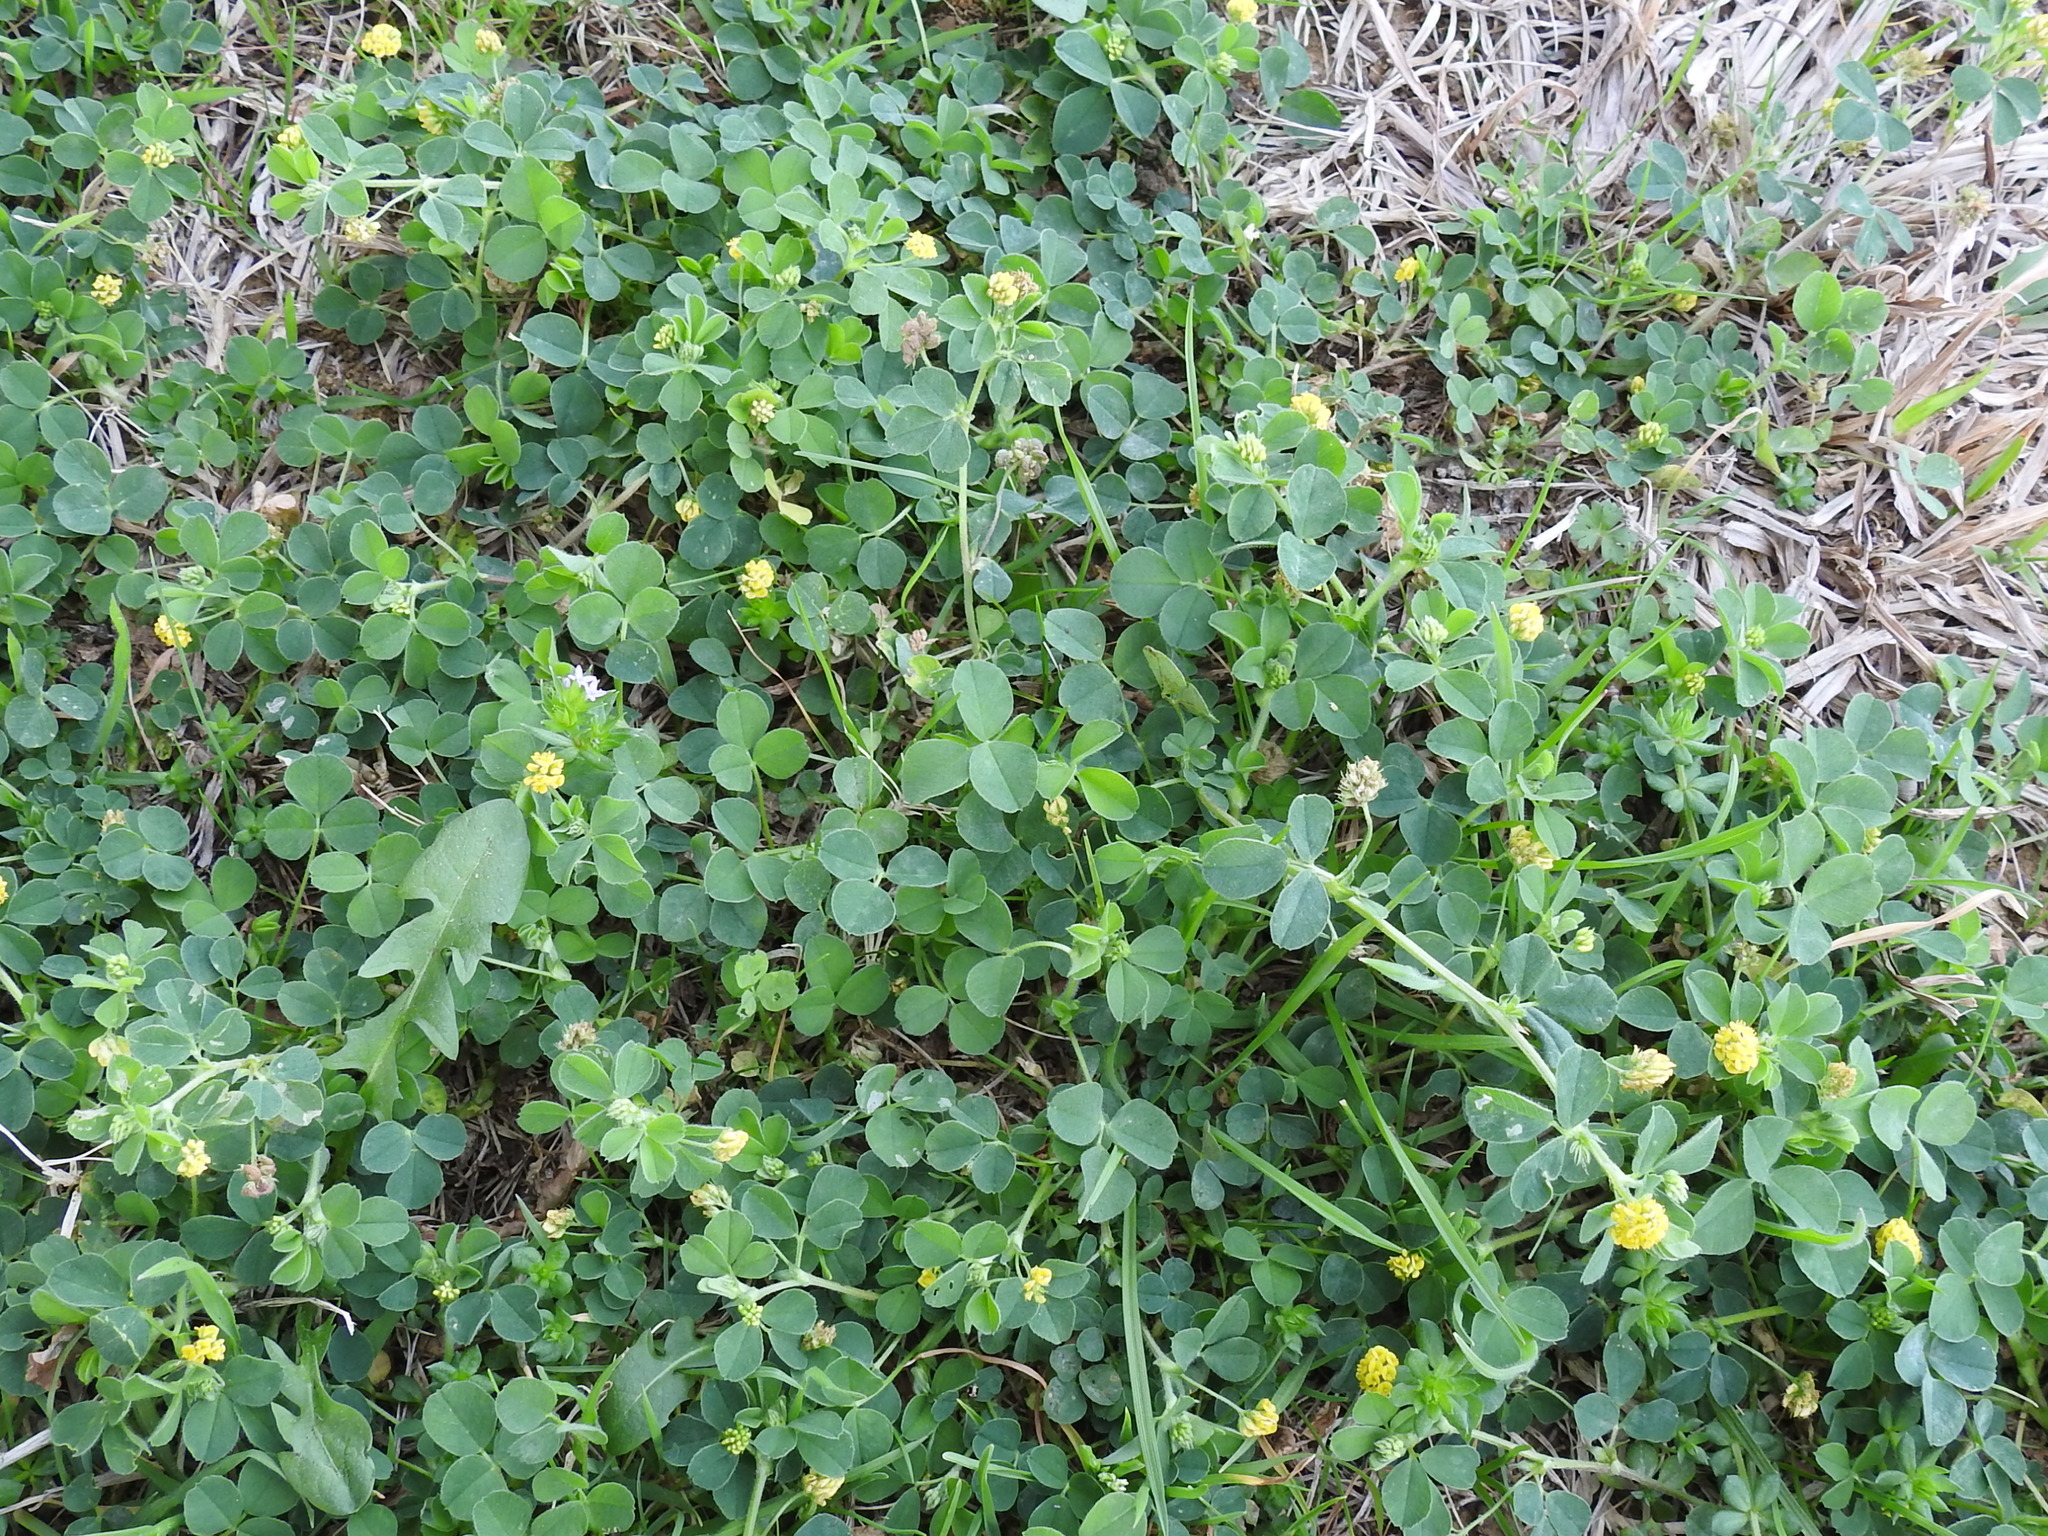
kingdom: Plantae
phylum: Tracheophyta
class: Magnoliopsida
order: Fabales
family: Fabaceae
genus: Medicago
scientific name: Medicago lupulina
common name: Black medick
